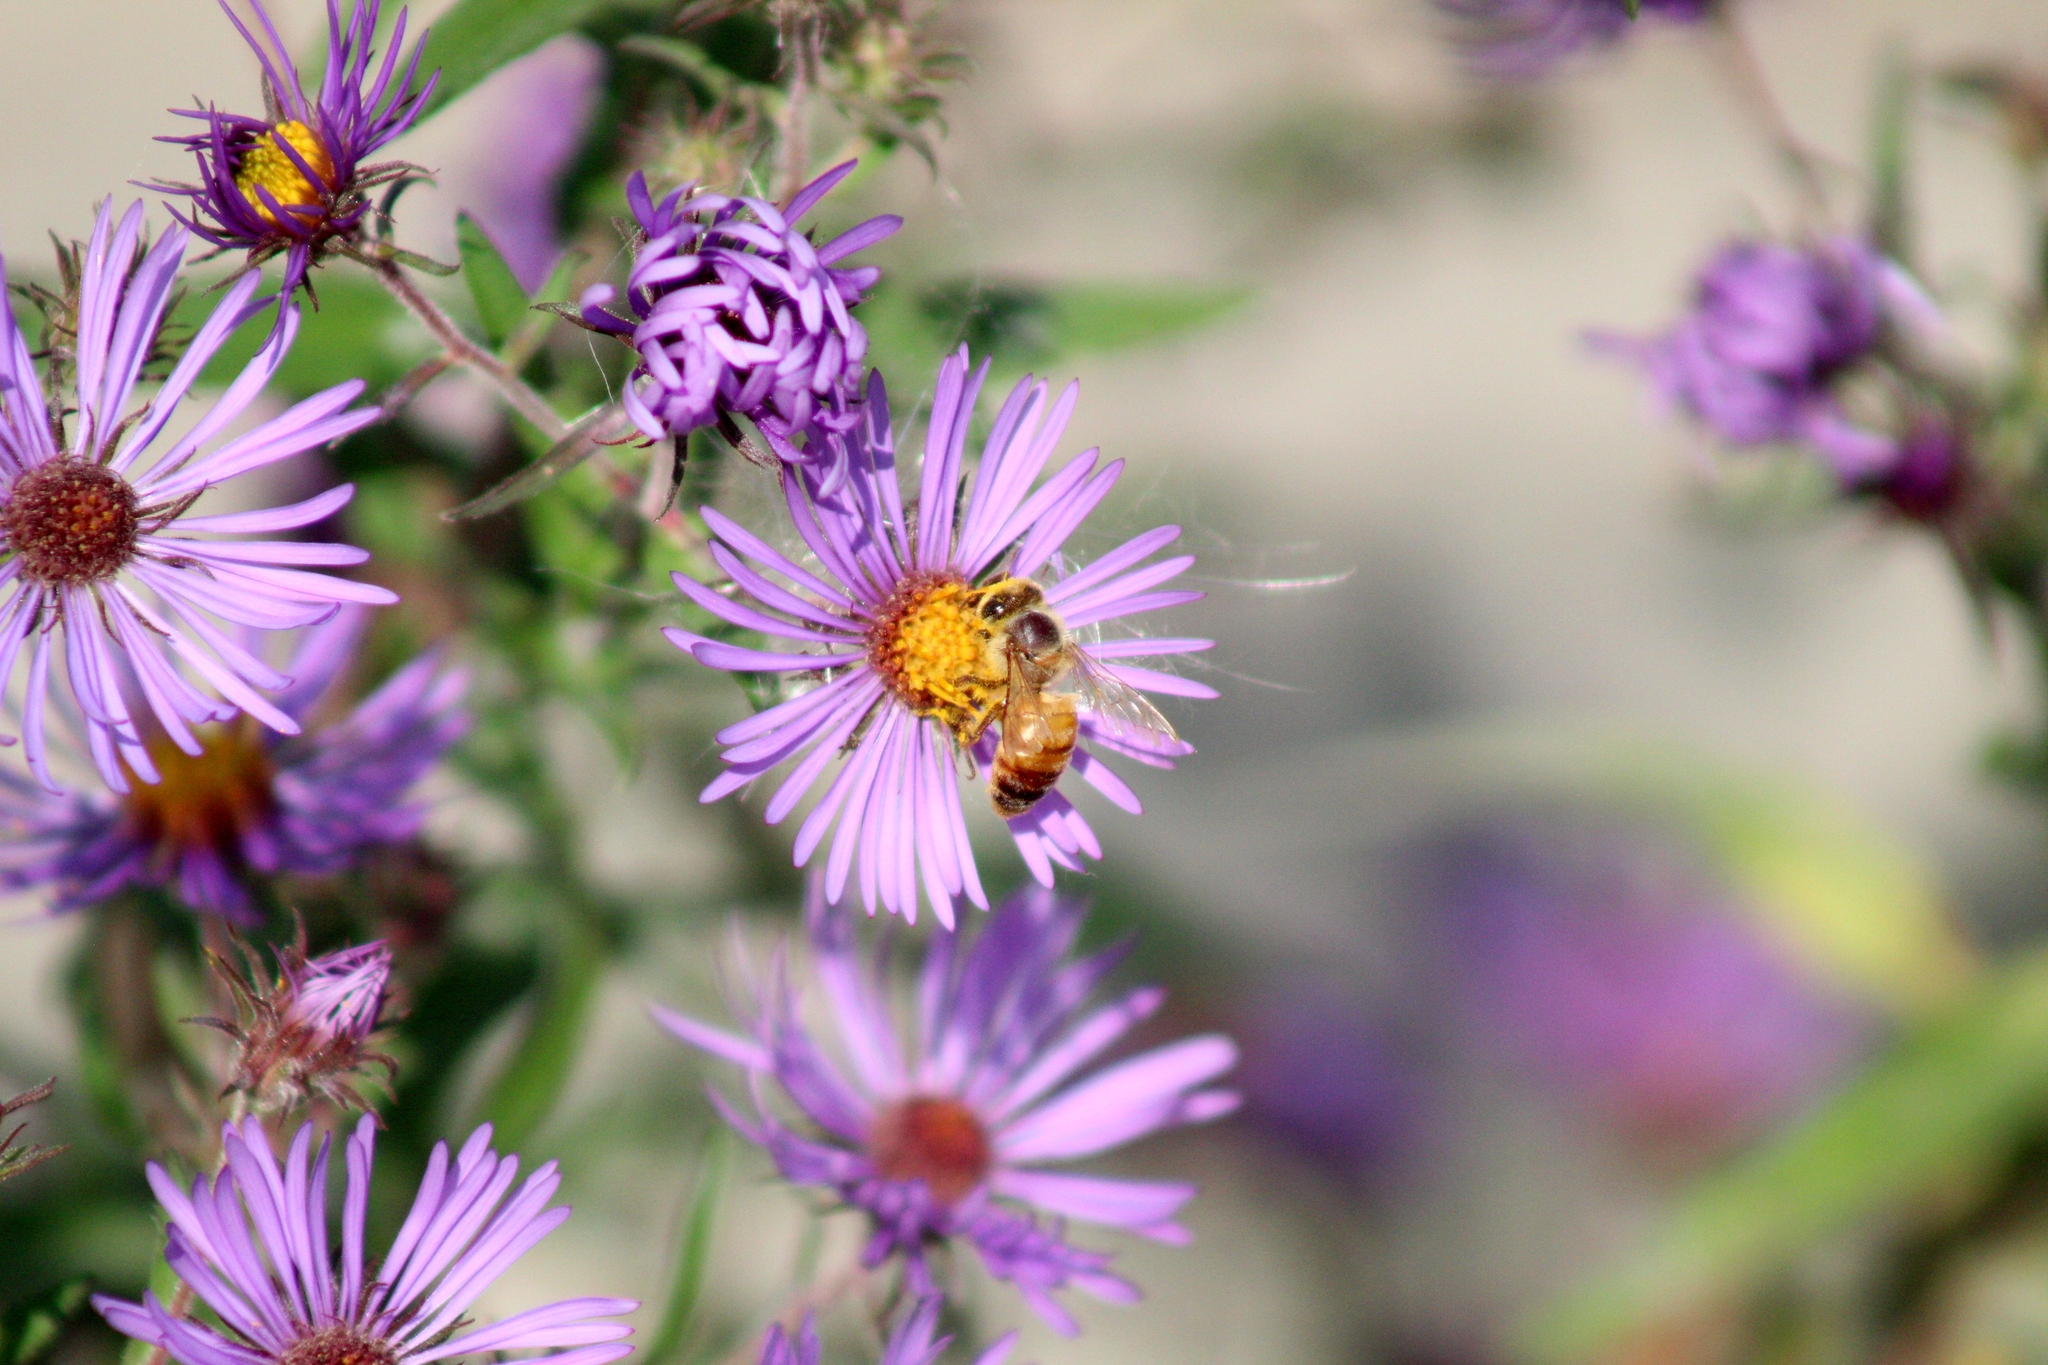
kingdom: Animalia
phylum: Arthropoda
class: Insecta
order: Hymenoptera
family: Apidae
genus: Apis
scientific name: Apis mellifera
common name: Honey bee
